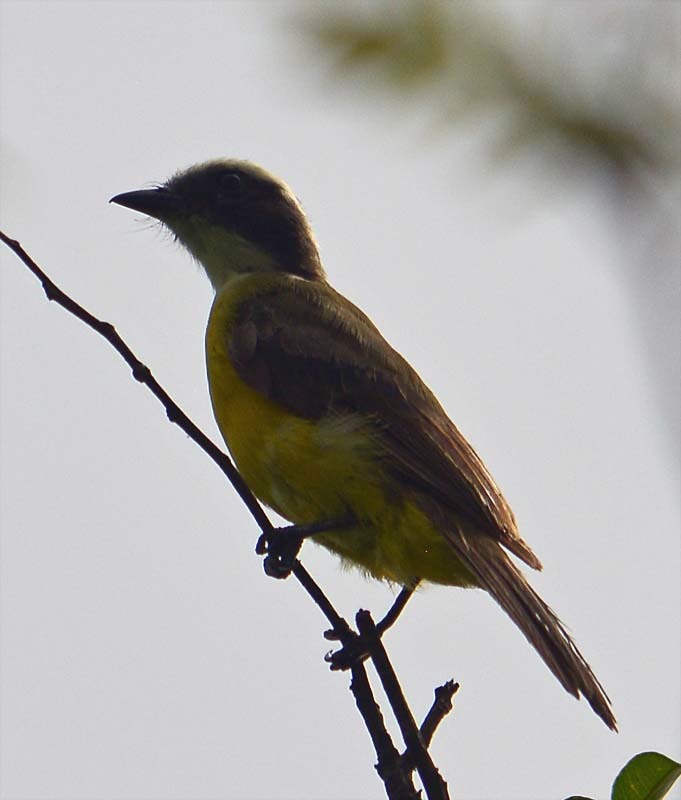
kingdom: Animalia
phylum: Chordata
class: Aves
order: Passeriformes
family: Tyrannidae
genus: Myiozetetes
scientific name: Myiozetetes similis
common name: Social flycatcher
